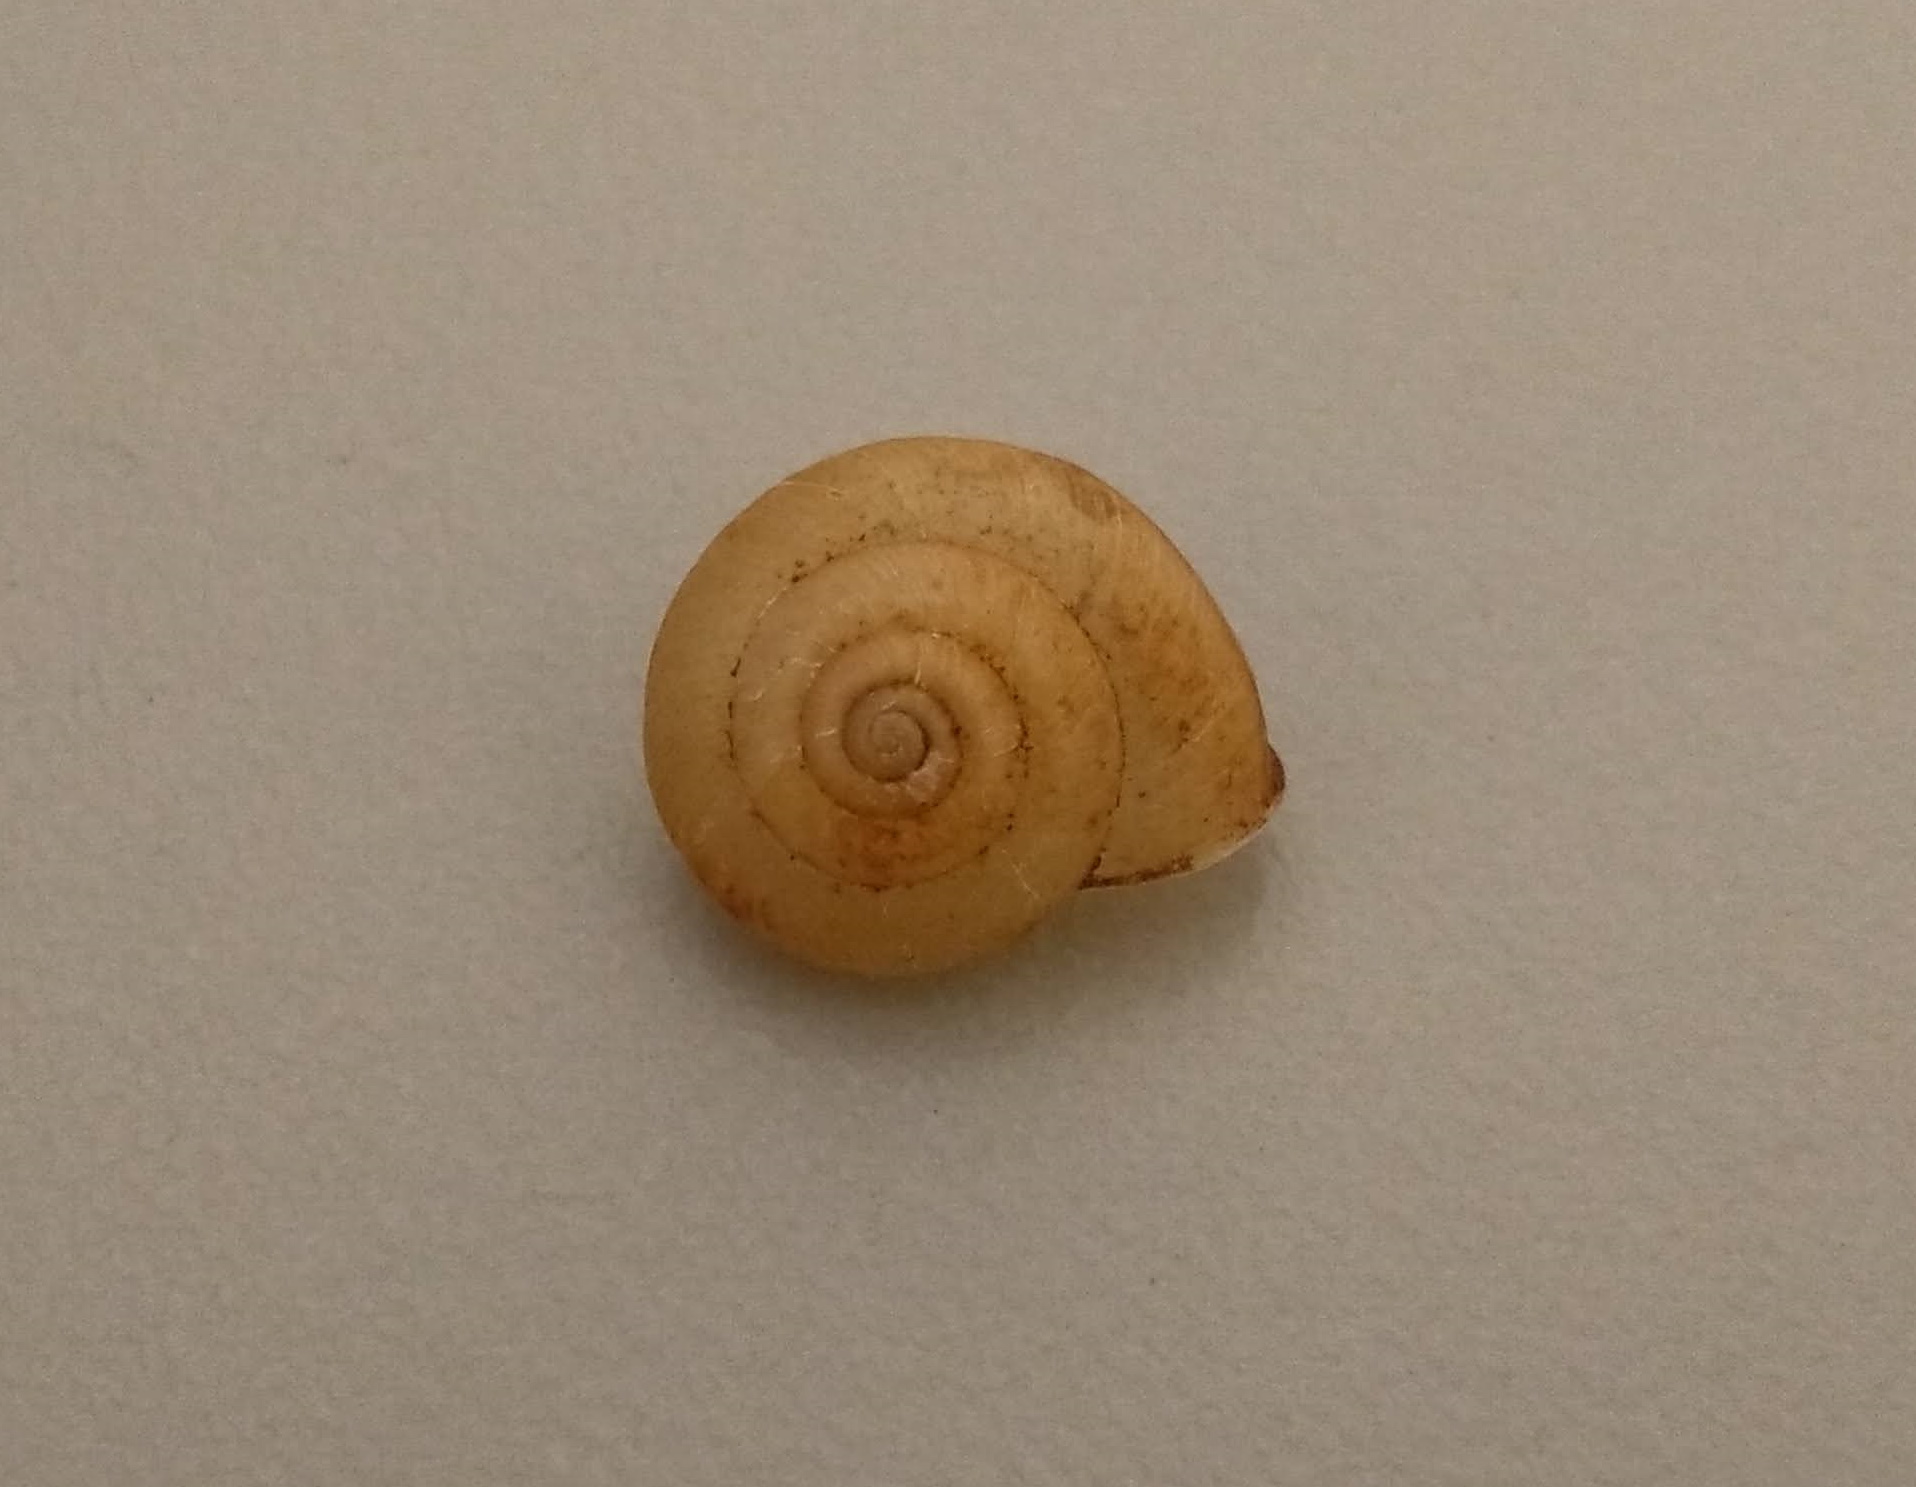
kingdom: Animalia
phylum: Mollusca
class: Gastropoda
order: Stylommatophora
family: Camaenidae
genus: Bradybaena
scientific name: Bradybaena similaris
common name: Asian trampsnail
